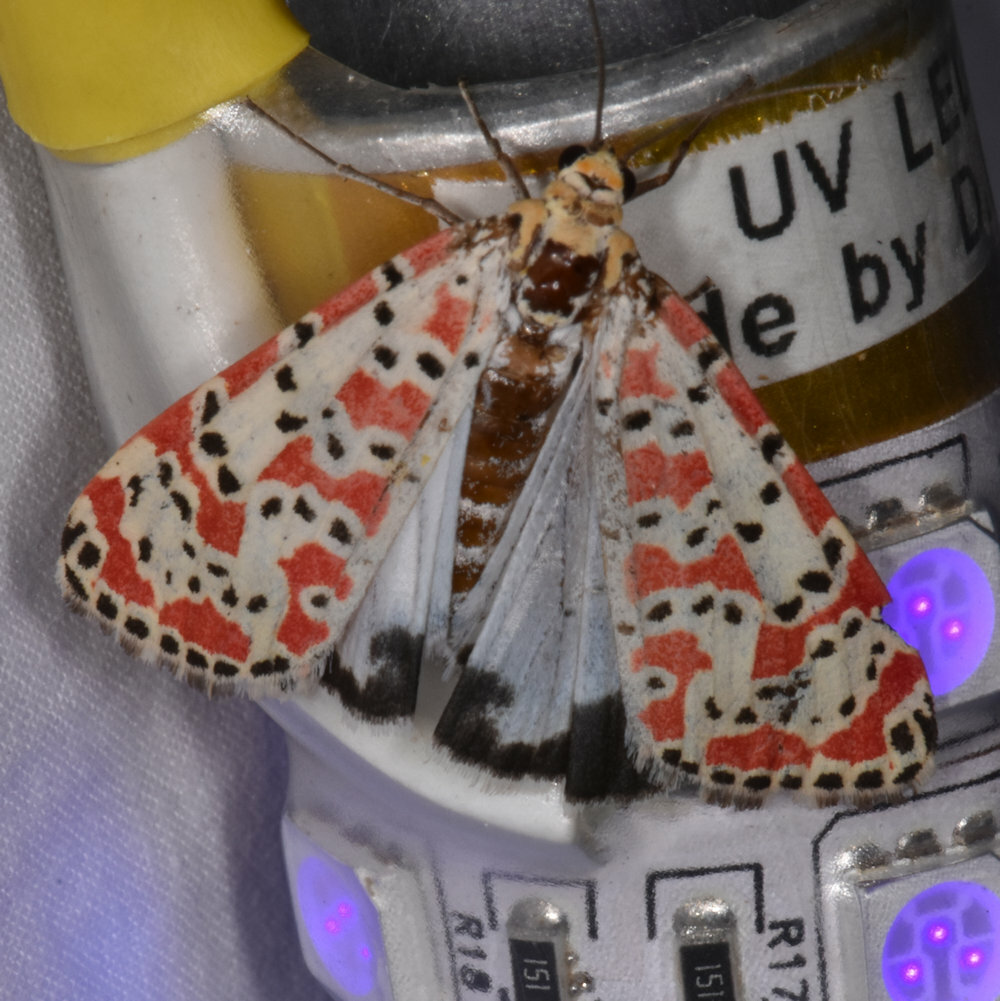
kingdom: Animalia
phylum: Arthropoda
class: Insecta
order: Lepidoptera
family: Erebidae
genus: Utetheisa
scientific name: Utetheisa pulchella
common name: Crimson speckled
